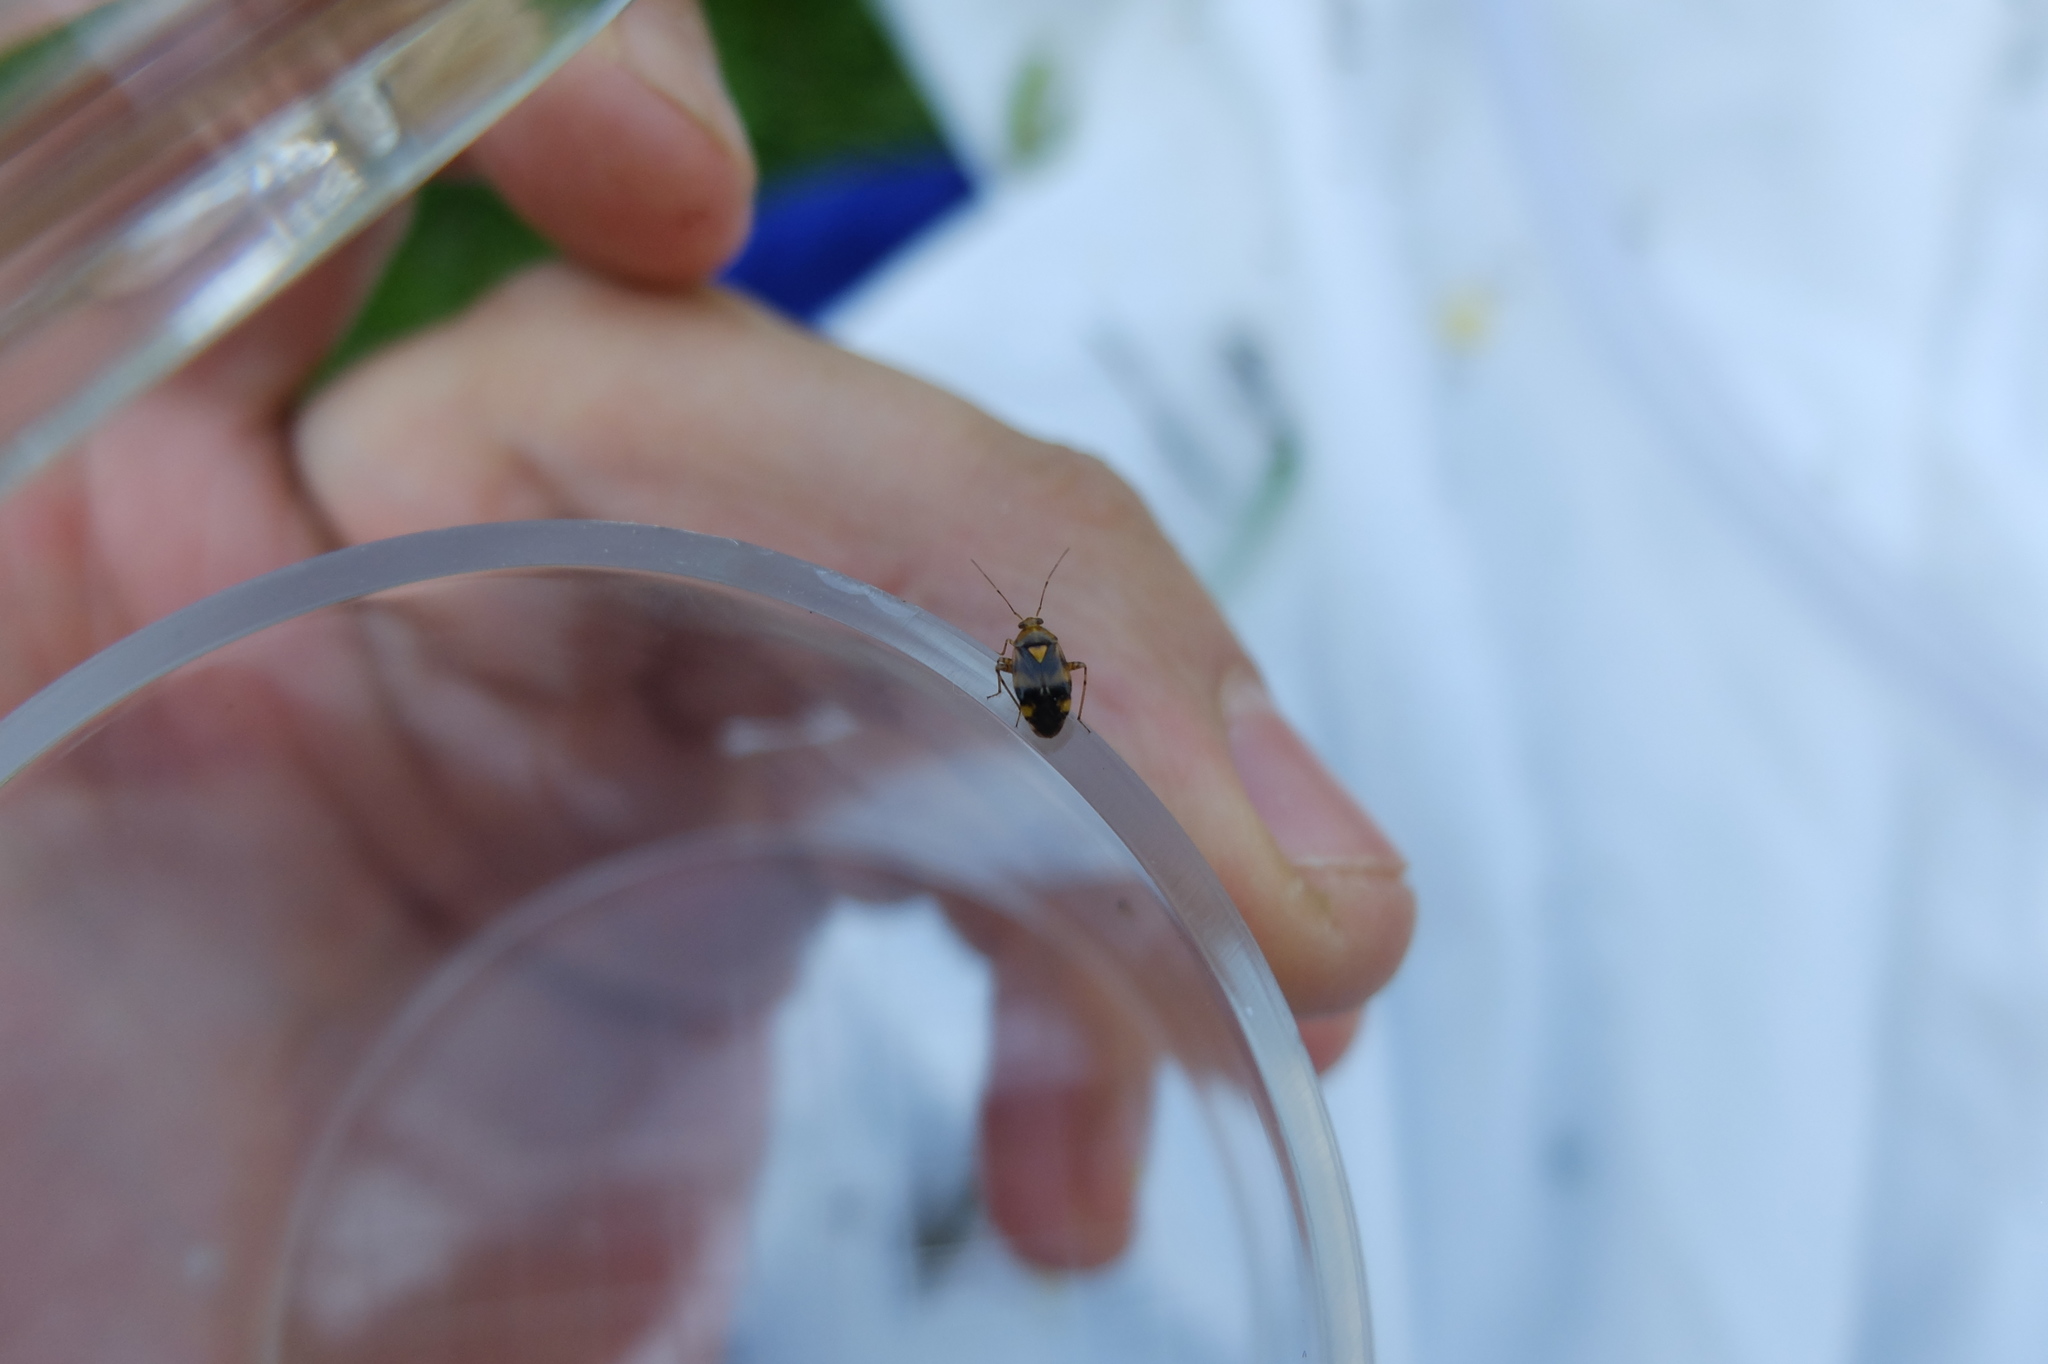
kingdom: Animalia
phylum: Arthropoda
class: Insecta
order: Hemiptera
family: Miridae
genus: Liocoris
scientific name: Liocoris tripustulatus
